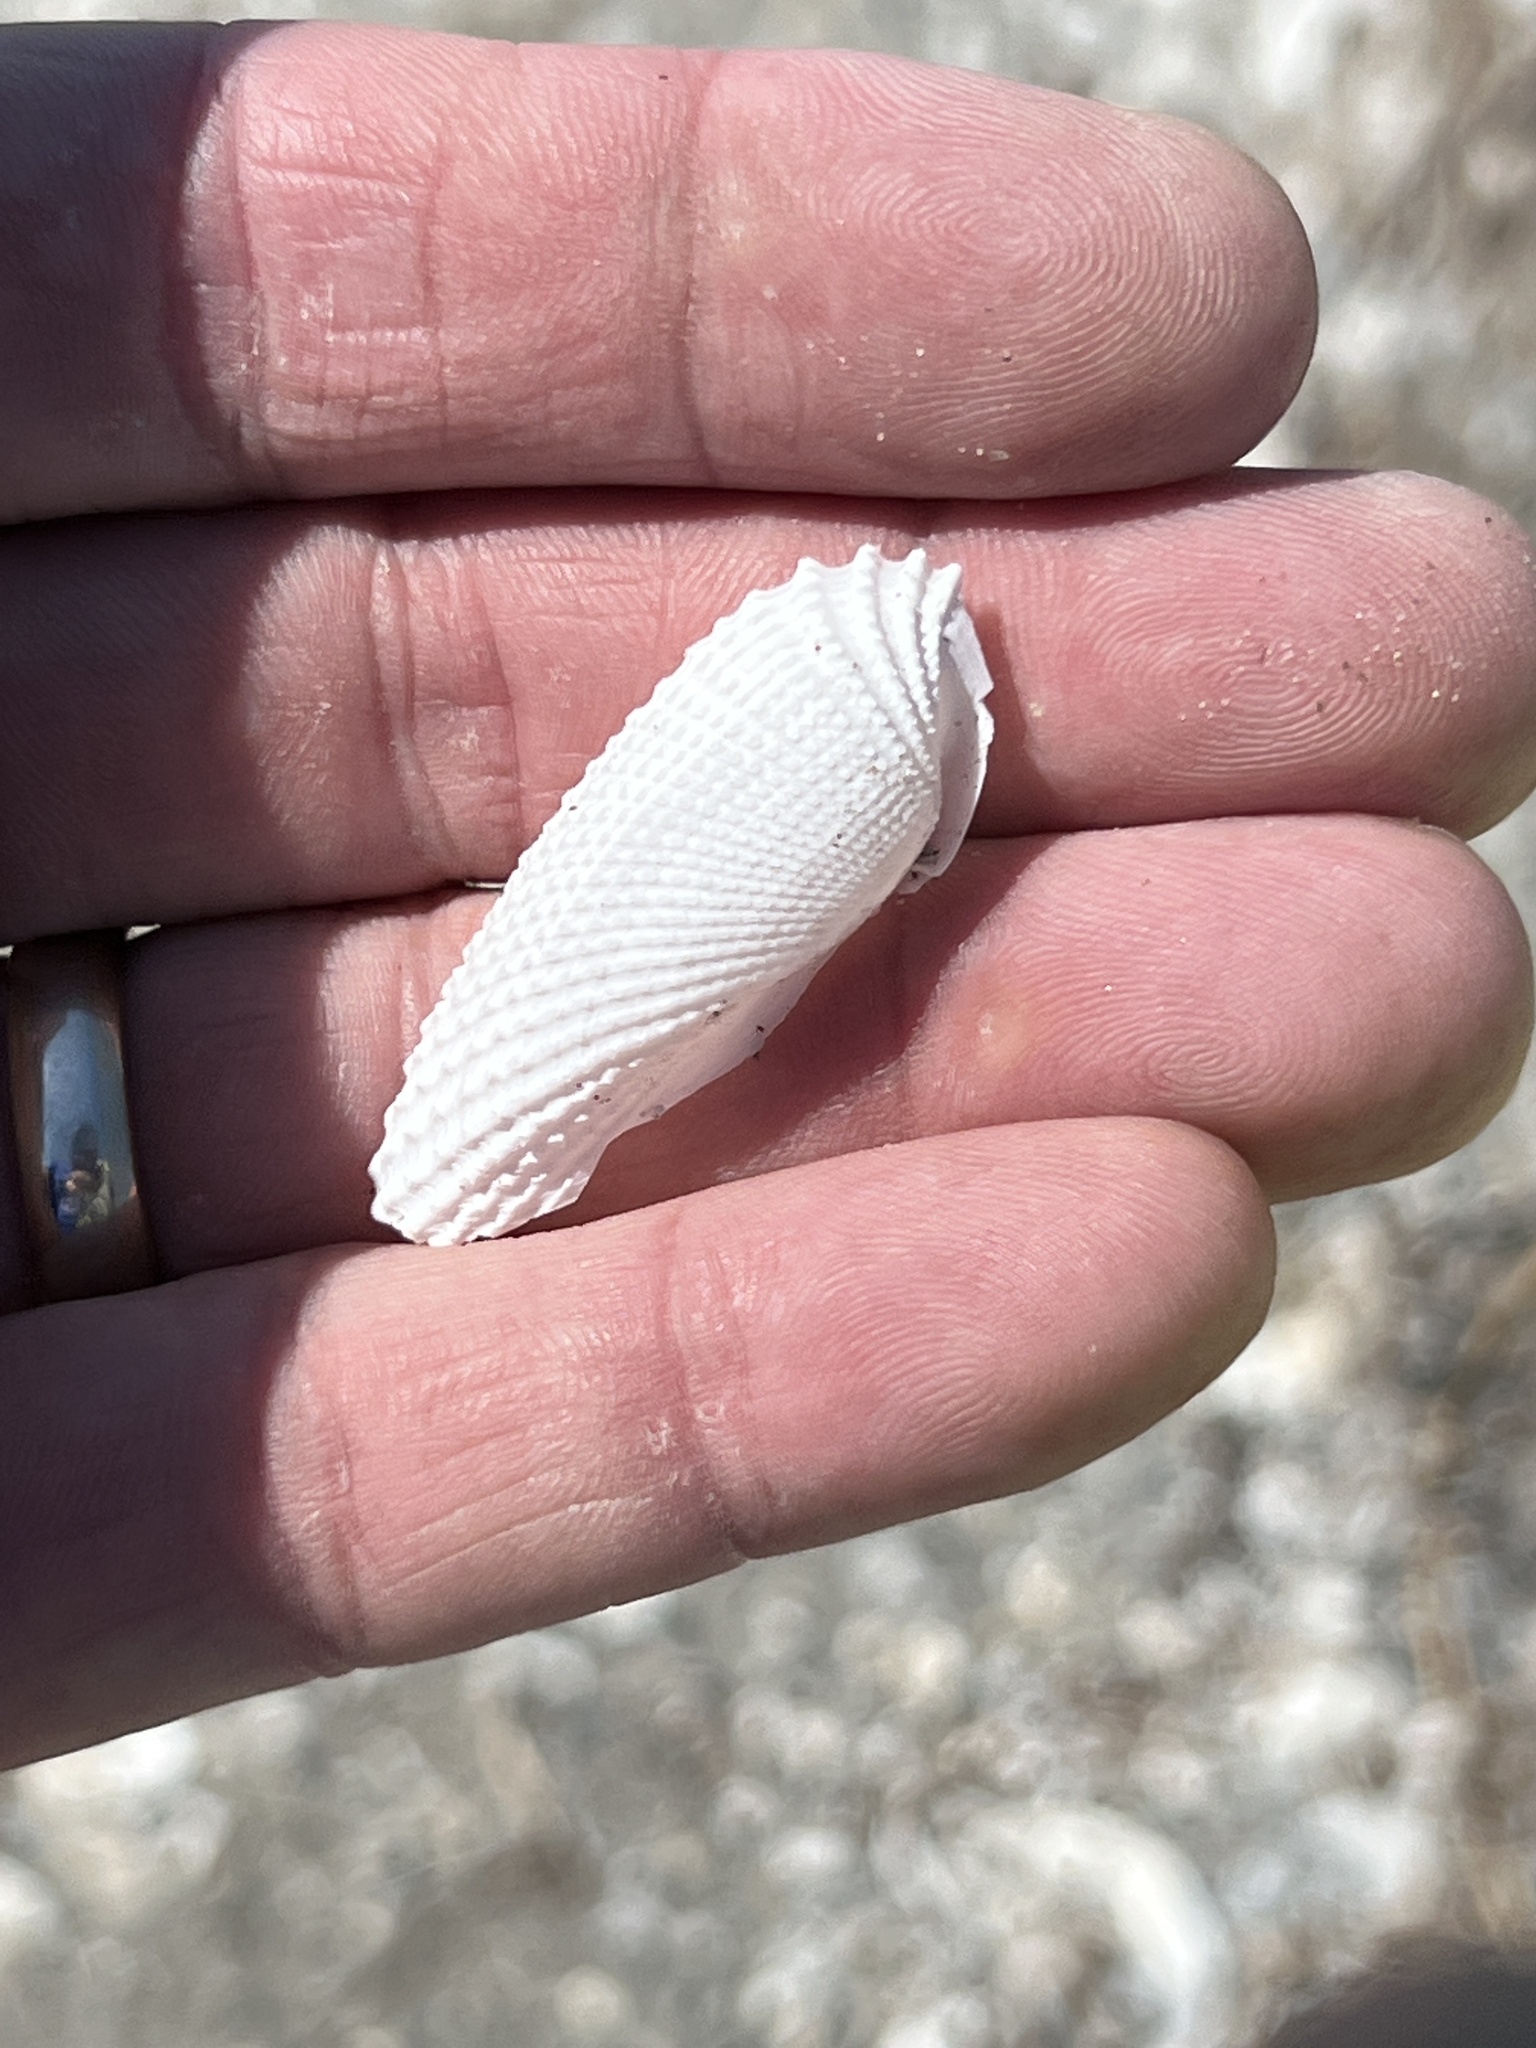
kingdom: Animalia
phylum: Mollusca
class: Bivalvia
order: Myida
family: Pholadidae
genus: Cyrtopleura
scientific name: Cyrtopleura costata
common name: Angel wing
